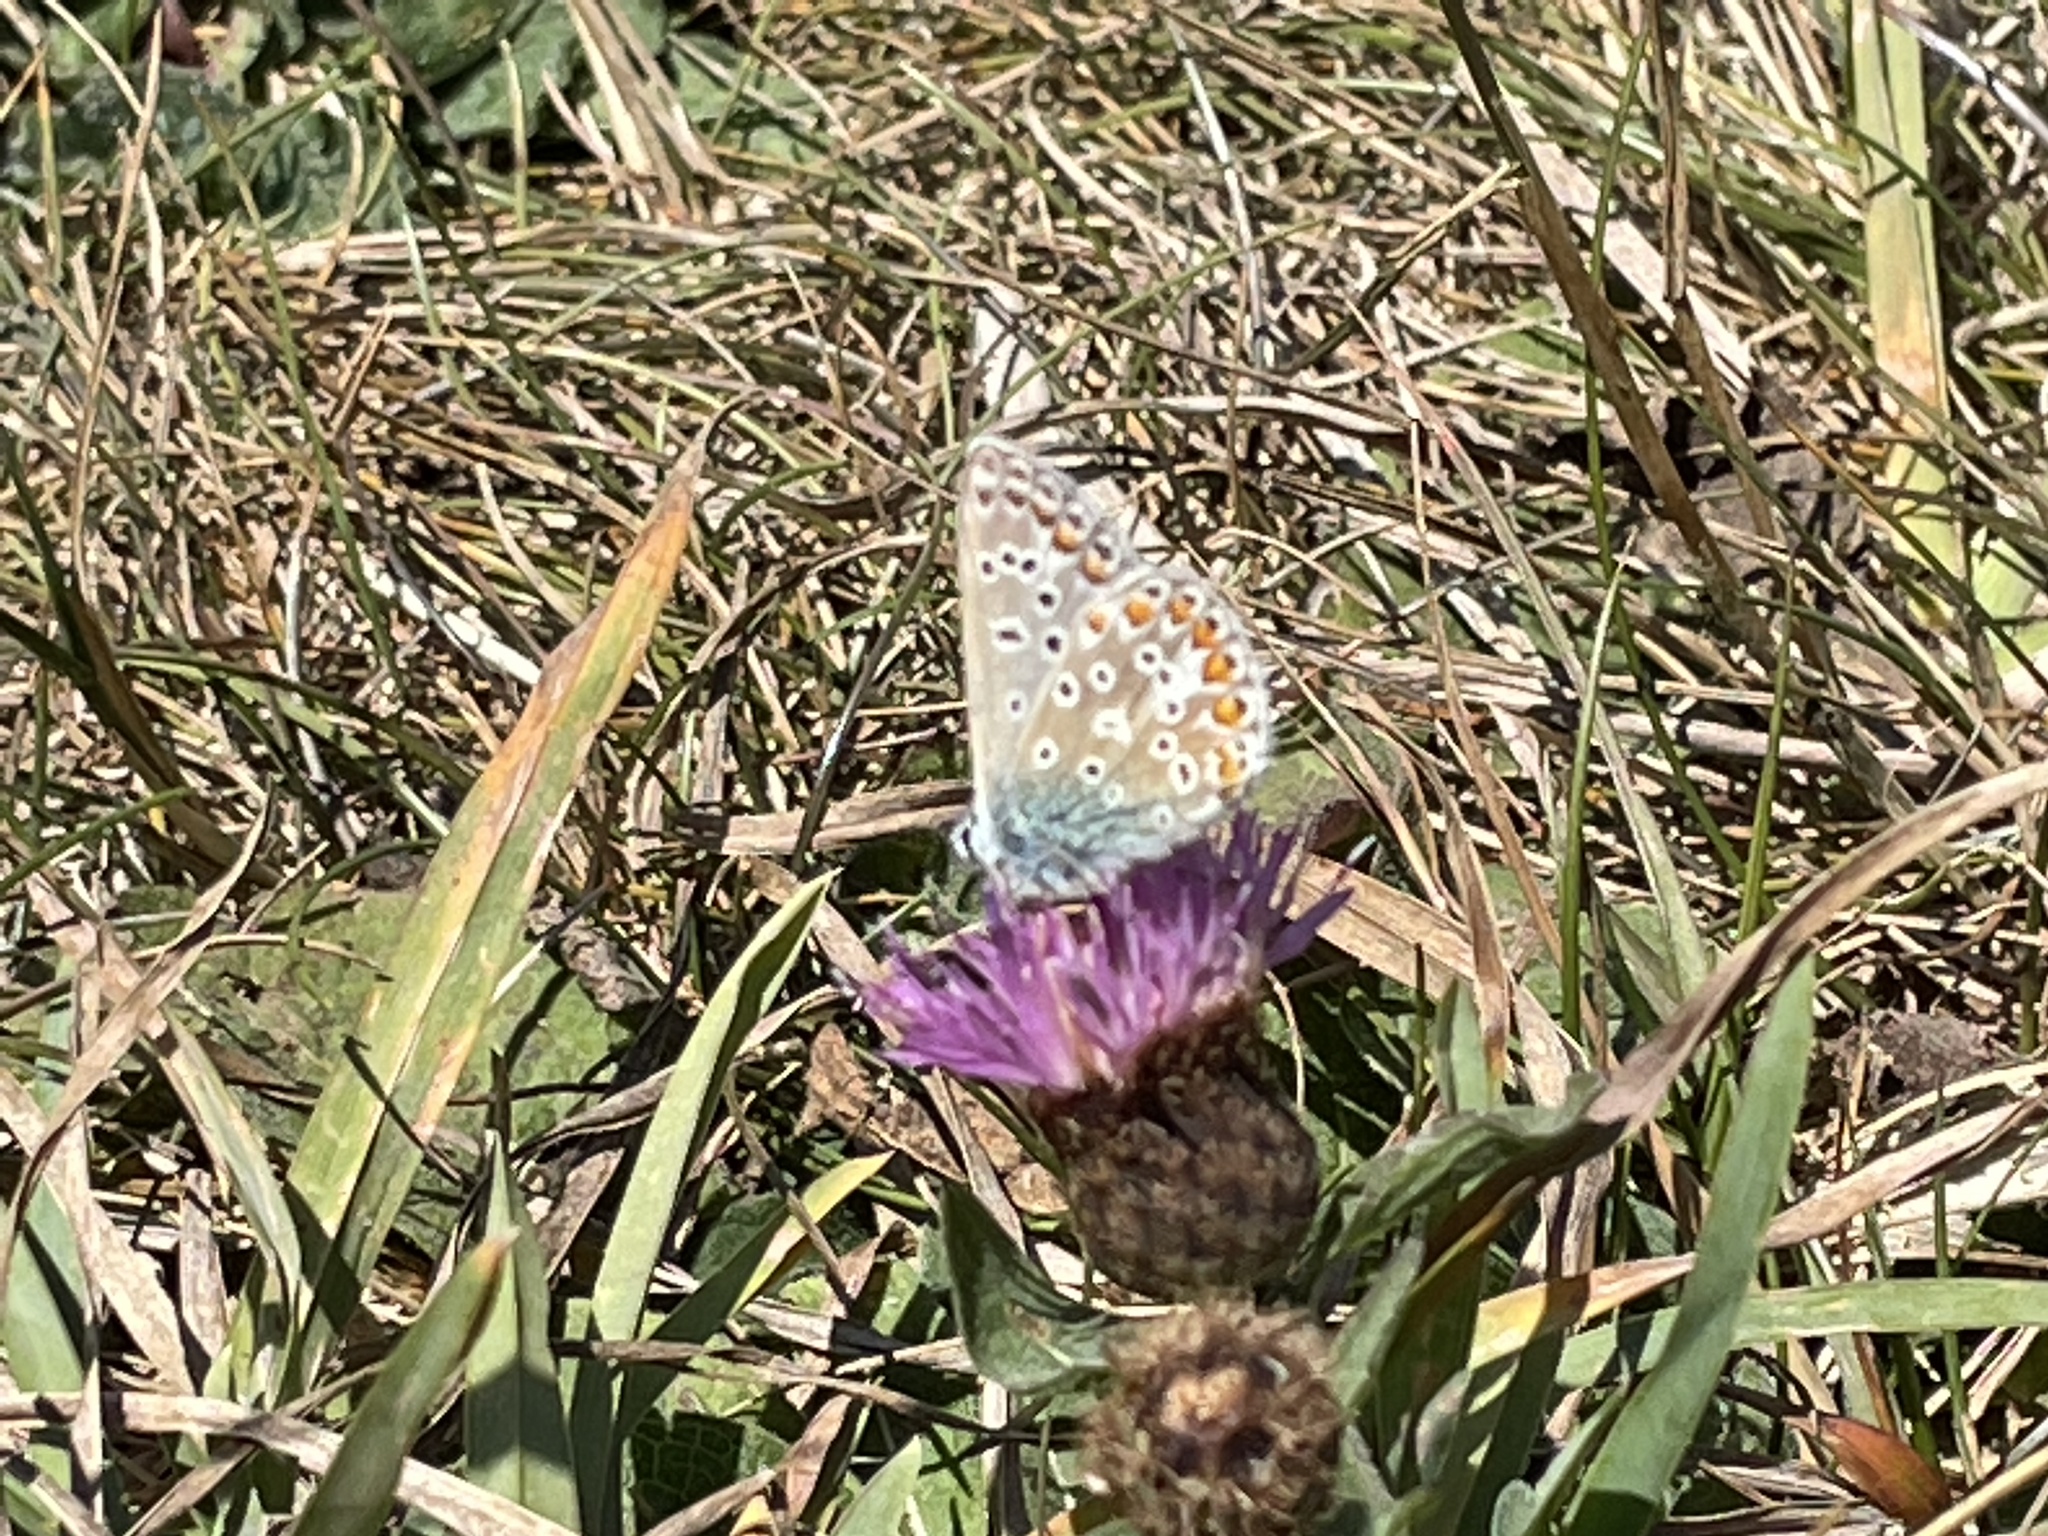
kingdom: Animalia
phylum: Arthropoda
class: Insecta
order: Lepidoptera
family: Lycaenidae
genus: Polyommatus
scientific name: Polyommatus icarus
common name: Common blue
